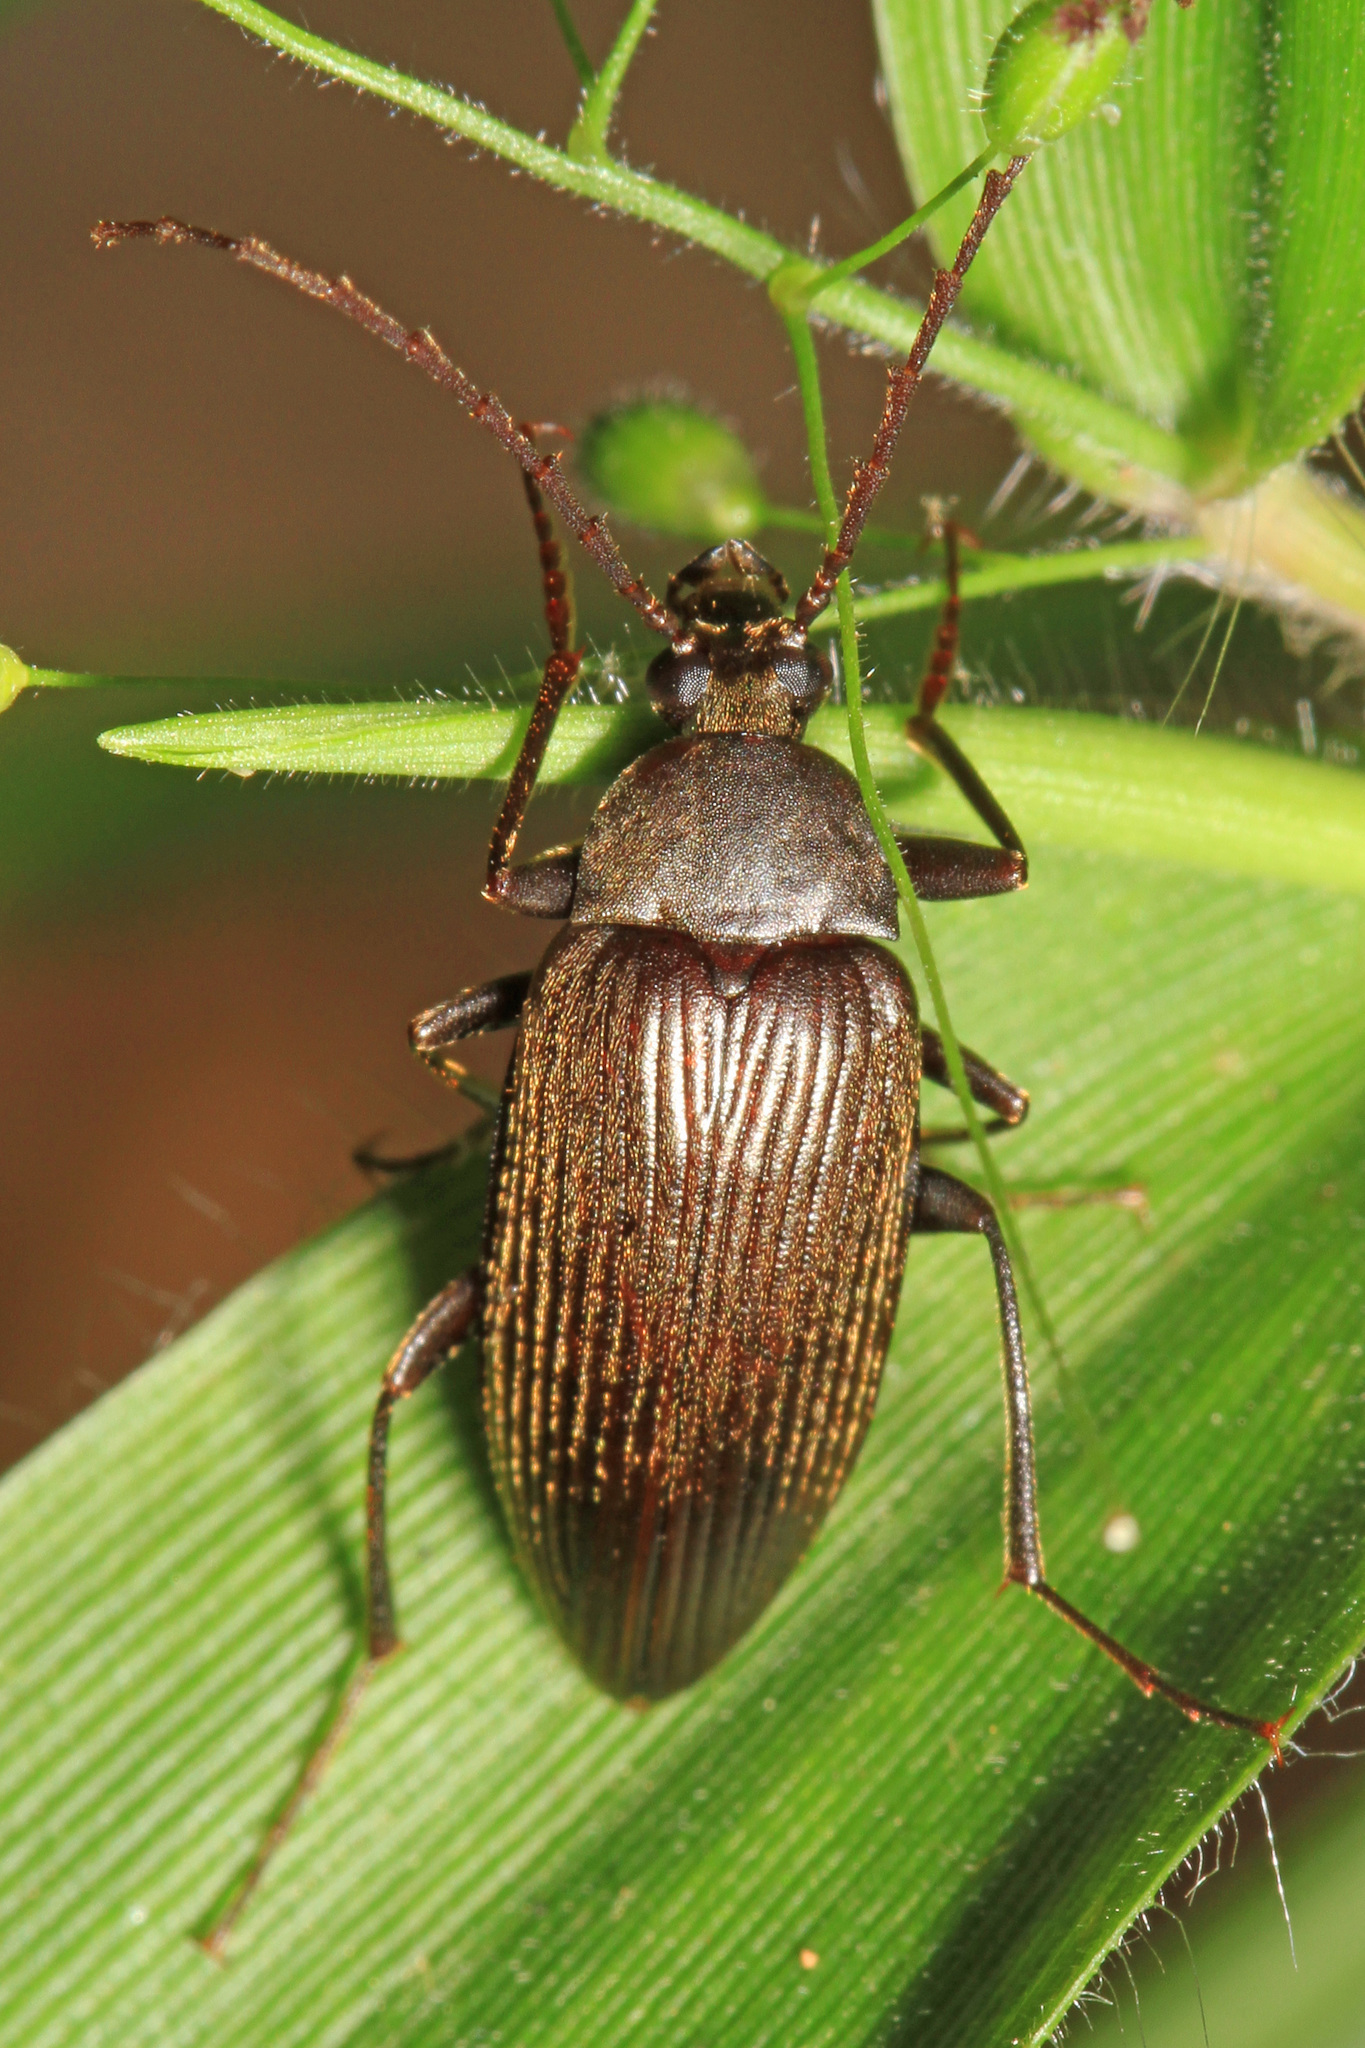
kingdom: Animalia
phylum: Arthropoda
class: Insecta
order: Coleoptera
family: Tenebrionidae
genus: Capnochroa
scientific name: Capnochroa fuliginosa
